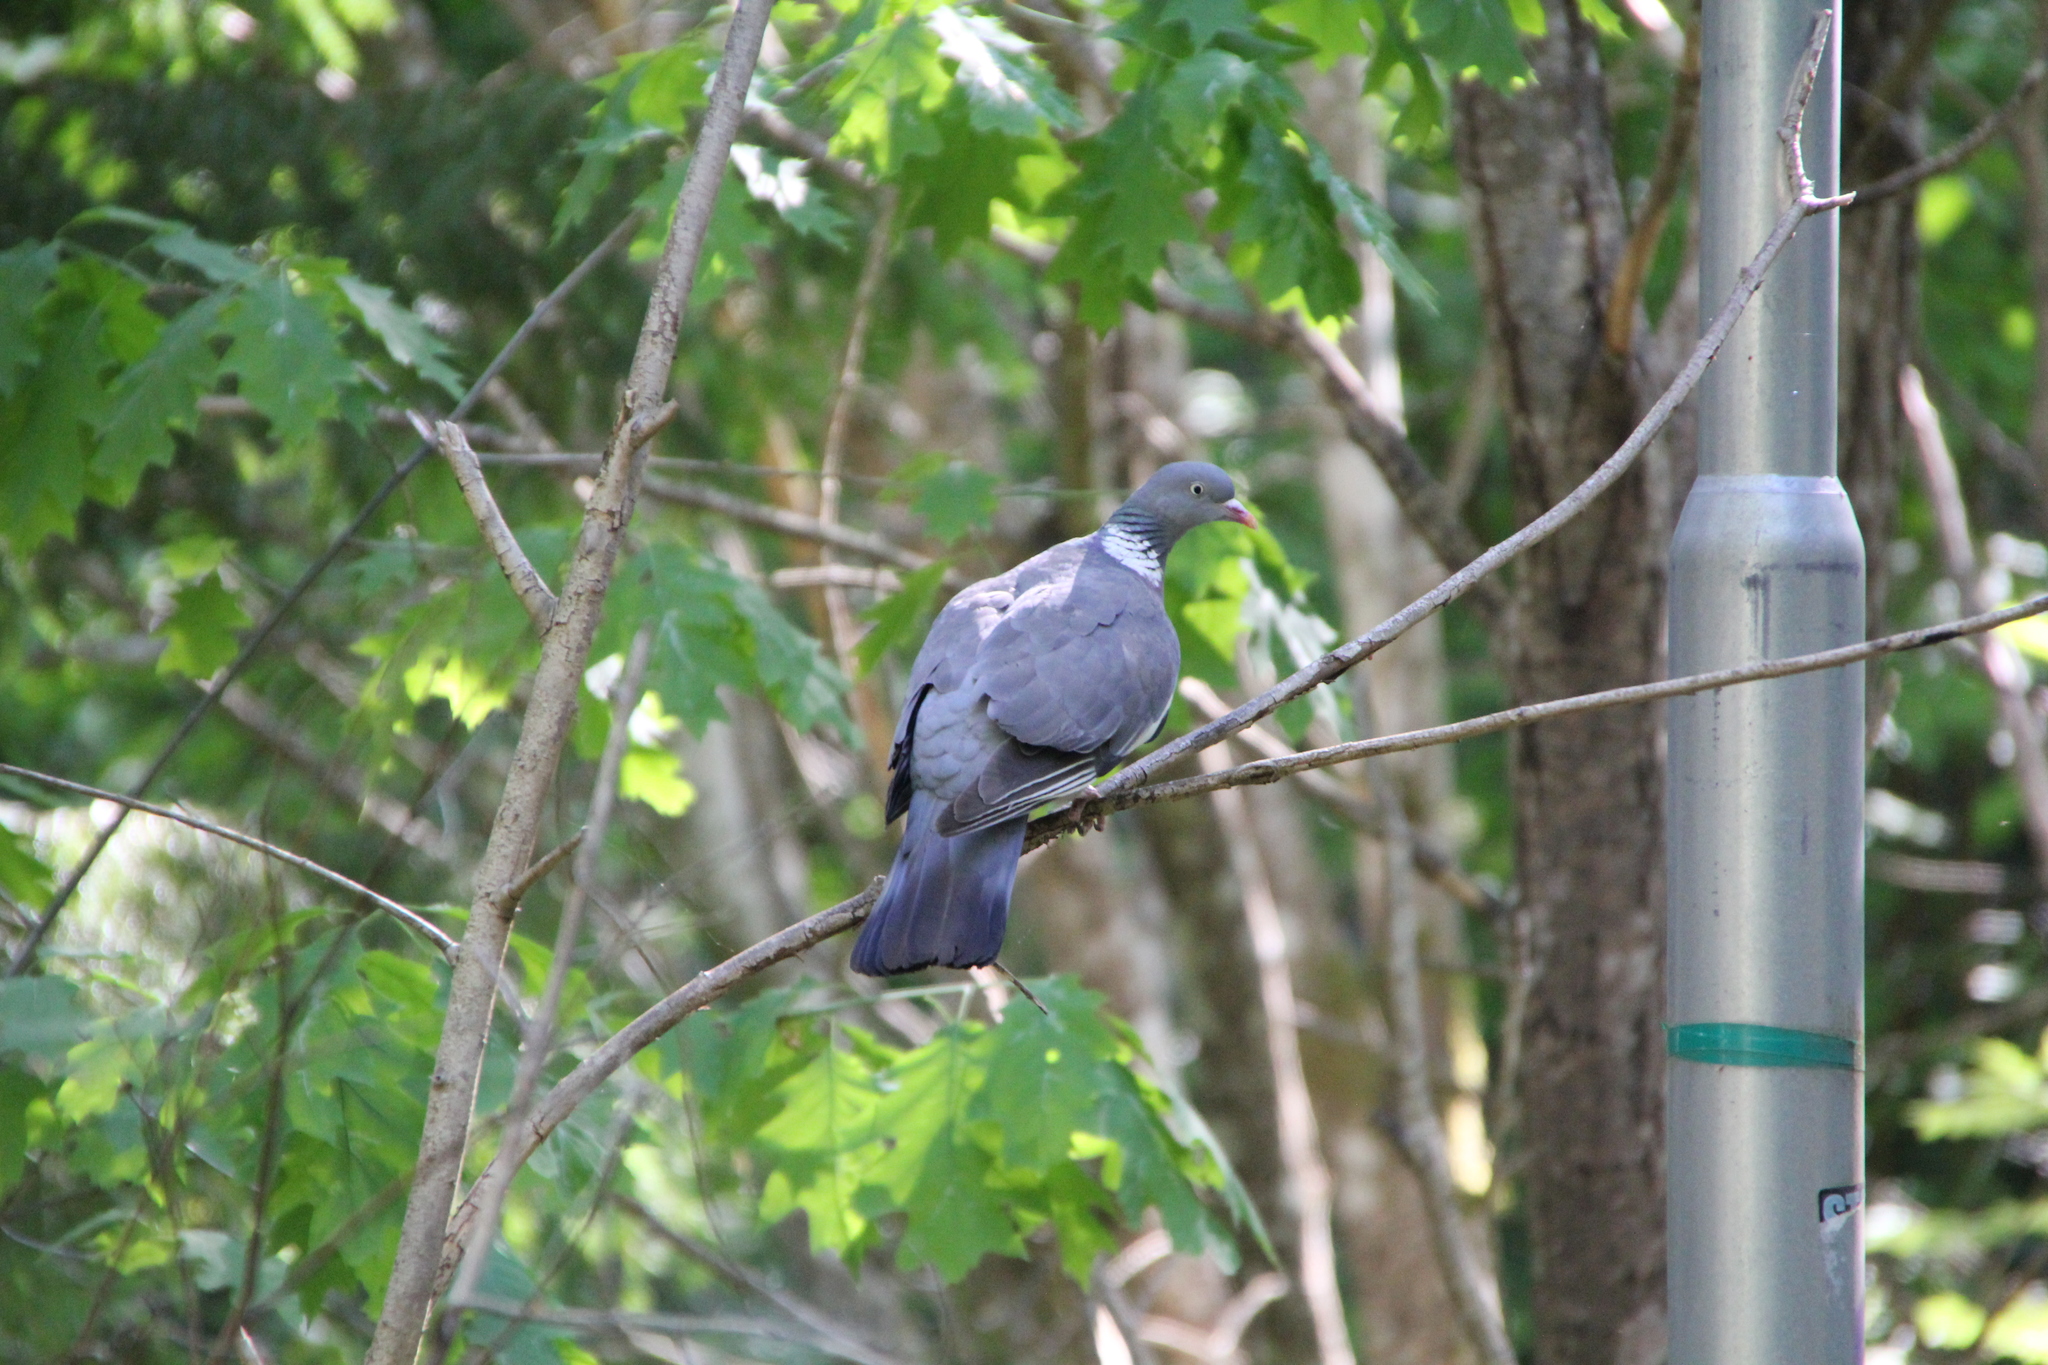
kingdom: Animalia
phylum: Chordata
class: Aves
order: Columbiformes
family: Columbidae
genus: Columba
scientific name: Columba palumbus
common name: Common wood pigeon
